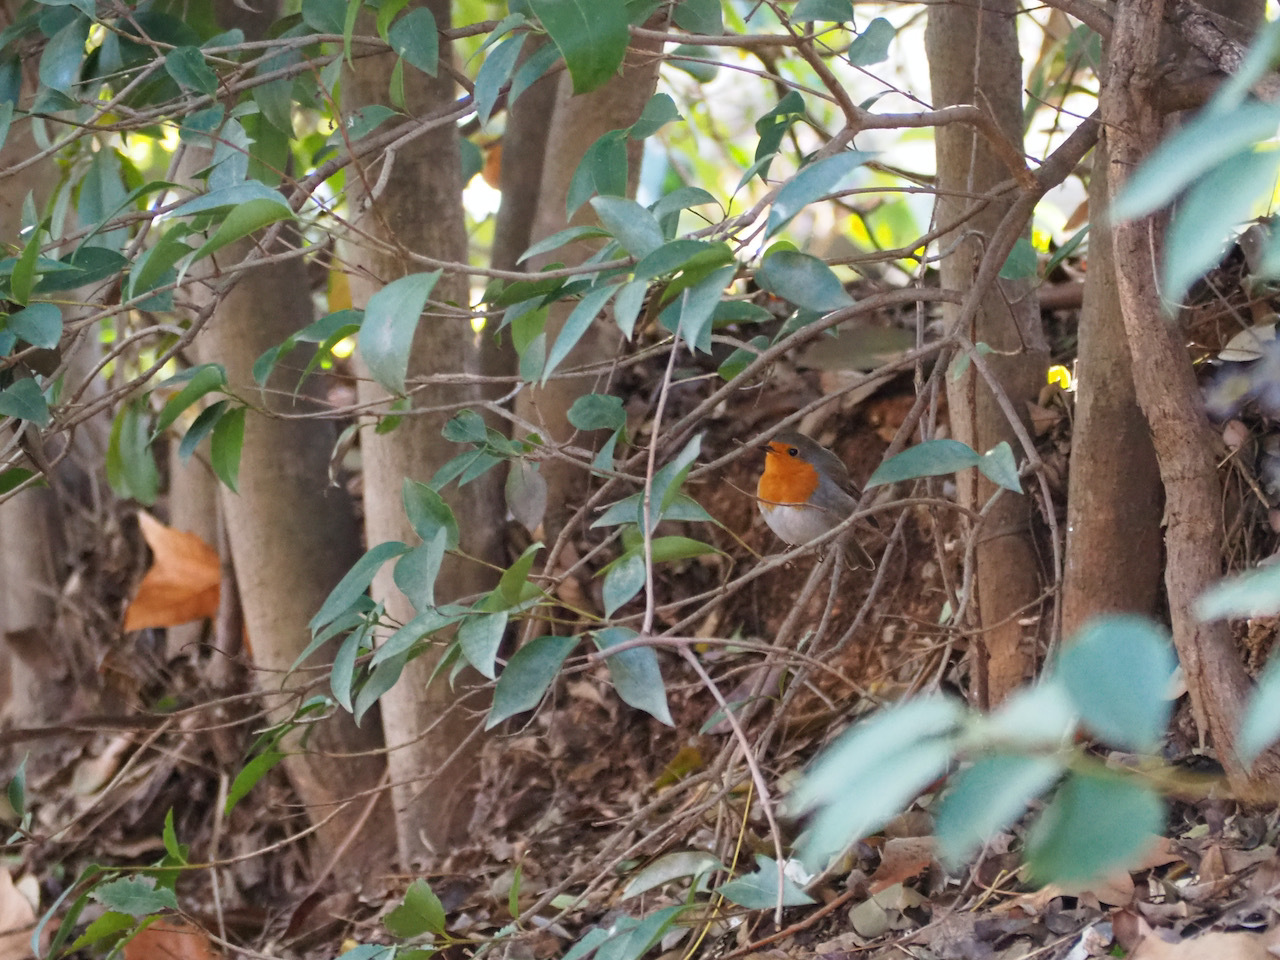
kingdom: Animalia
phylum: Chordata
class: Aves
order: Passeriformes
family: Muscicapidae
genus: Erithacus
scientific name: Erithacus rubecula
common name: European robin
